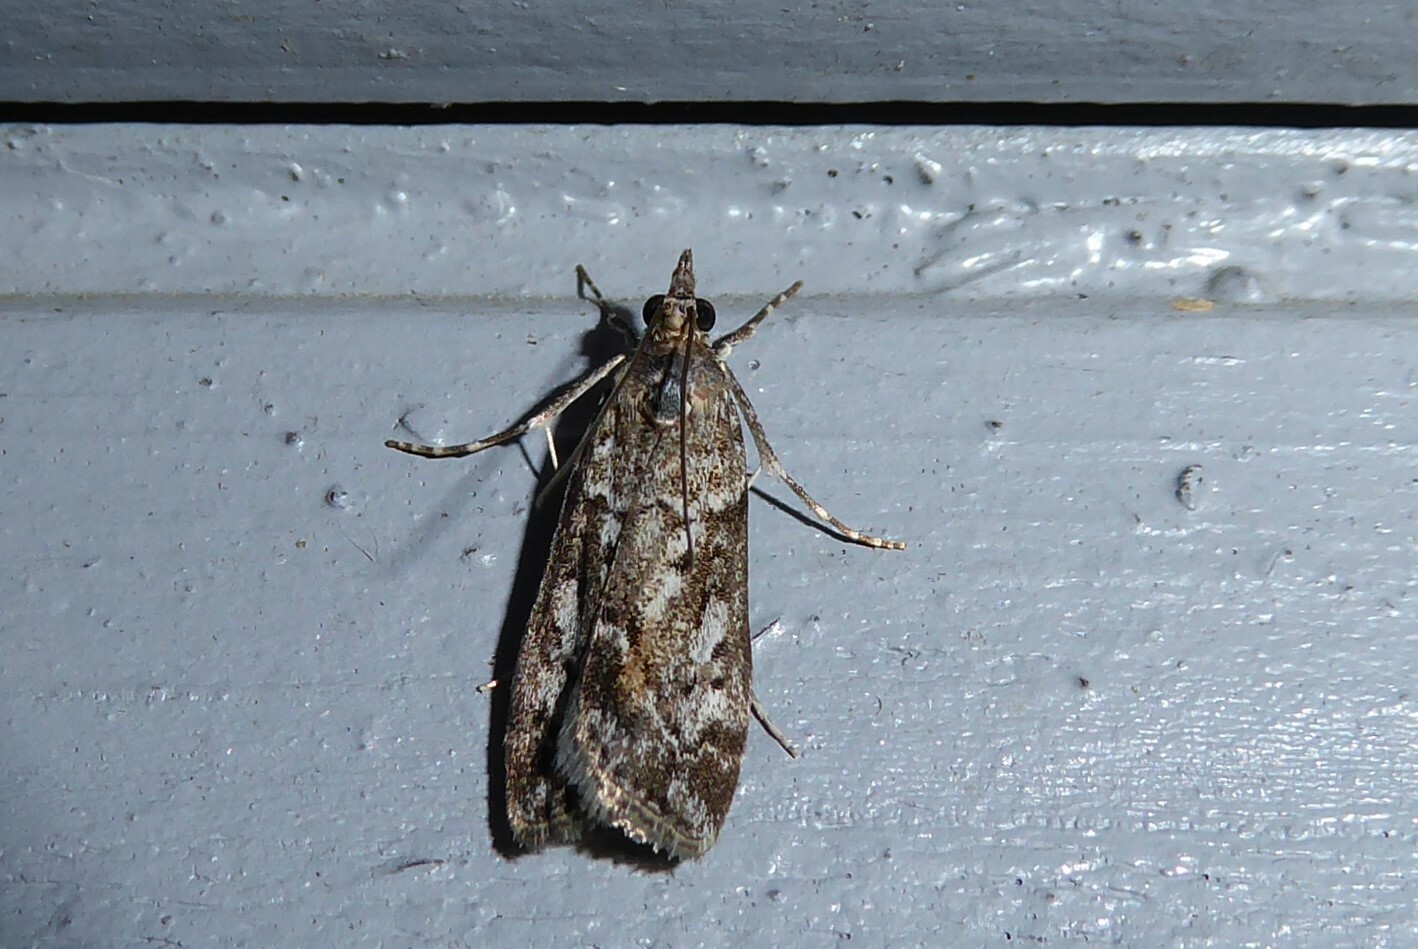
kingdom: Animalia
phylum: Arthropoda
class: Insecta
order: Lepidoptera
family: Crambidae
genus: Eudonia
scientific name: Eudonia submarginalis
